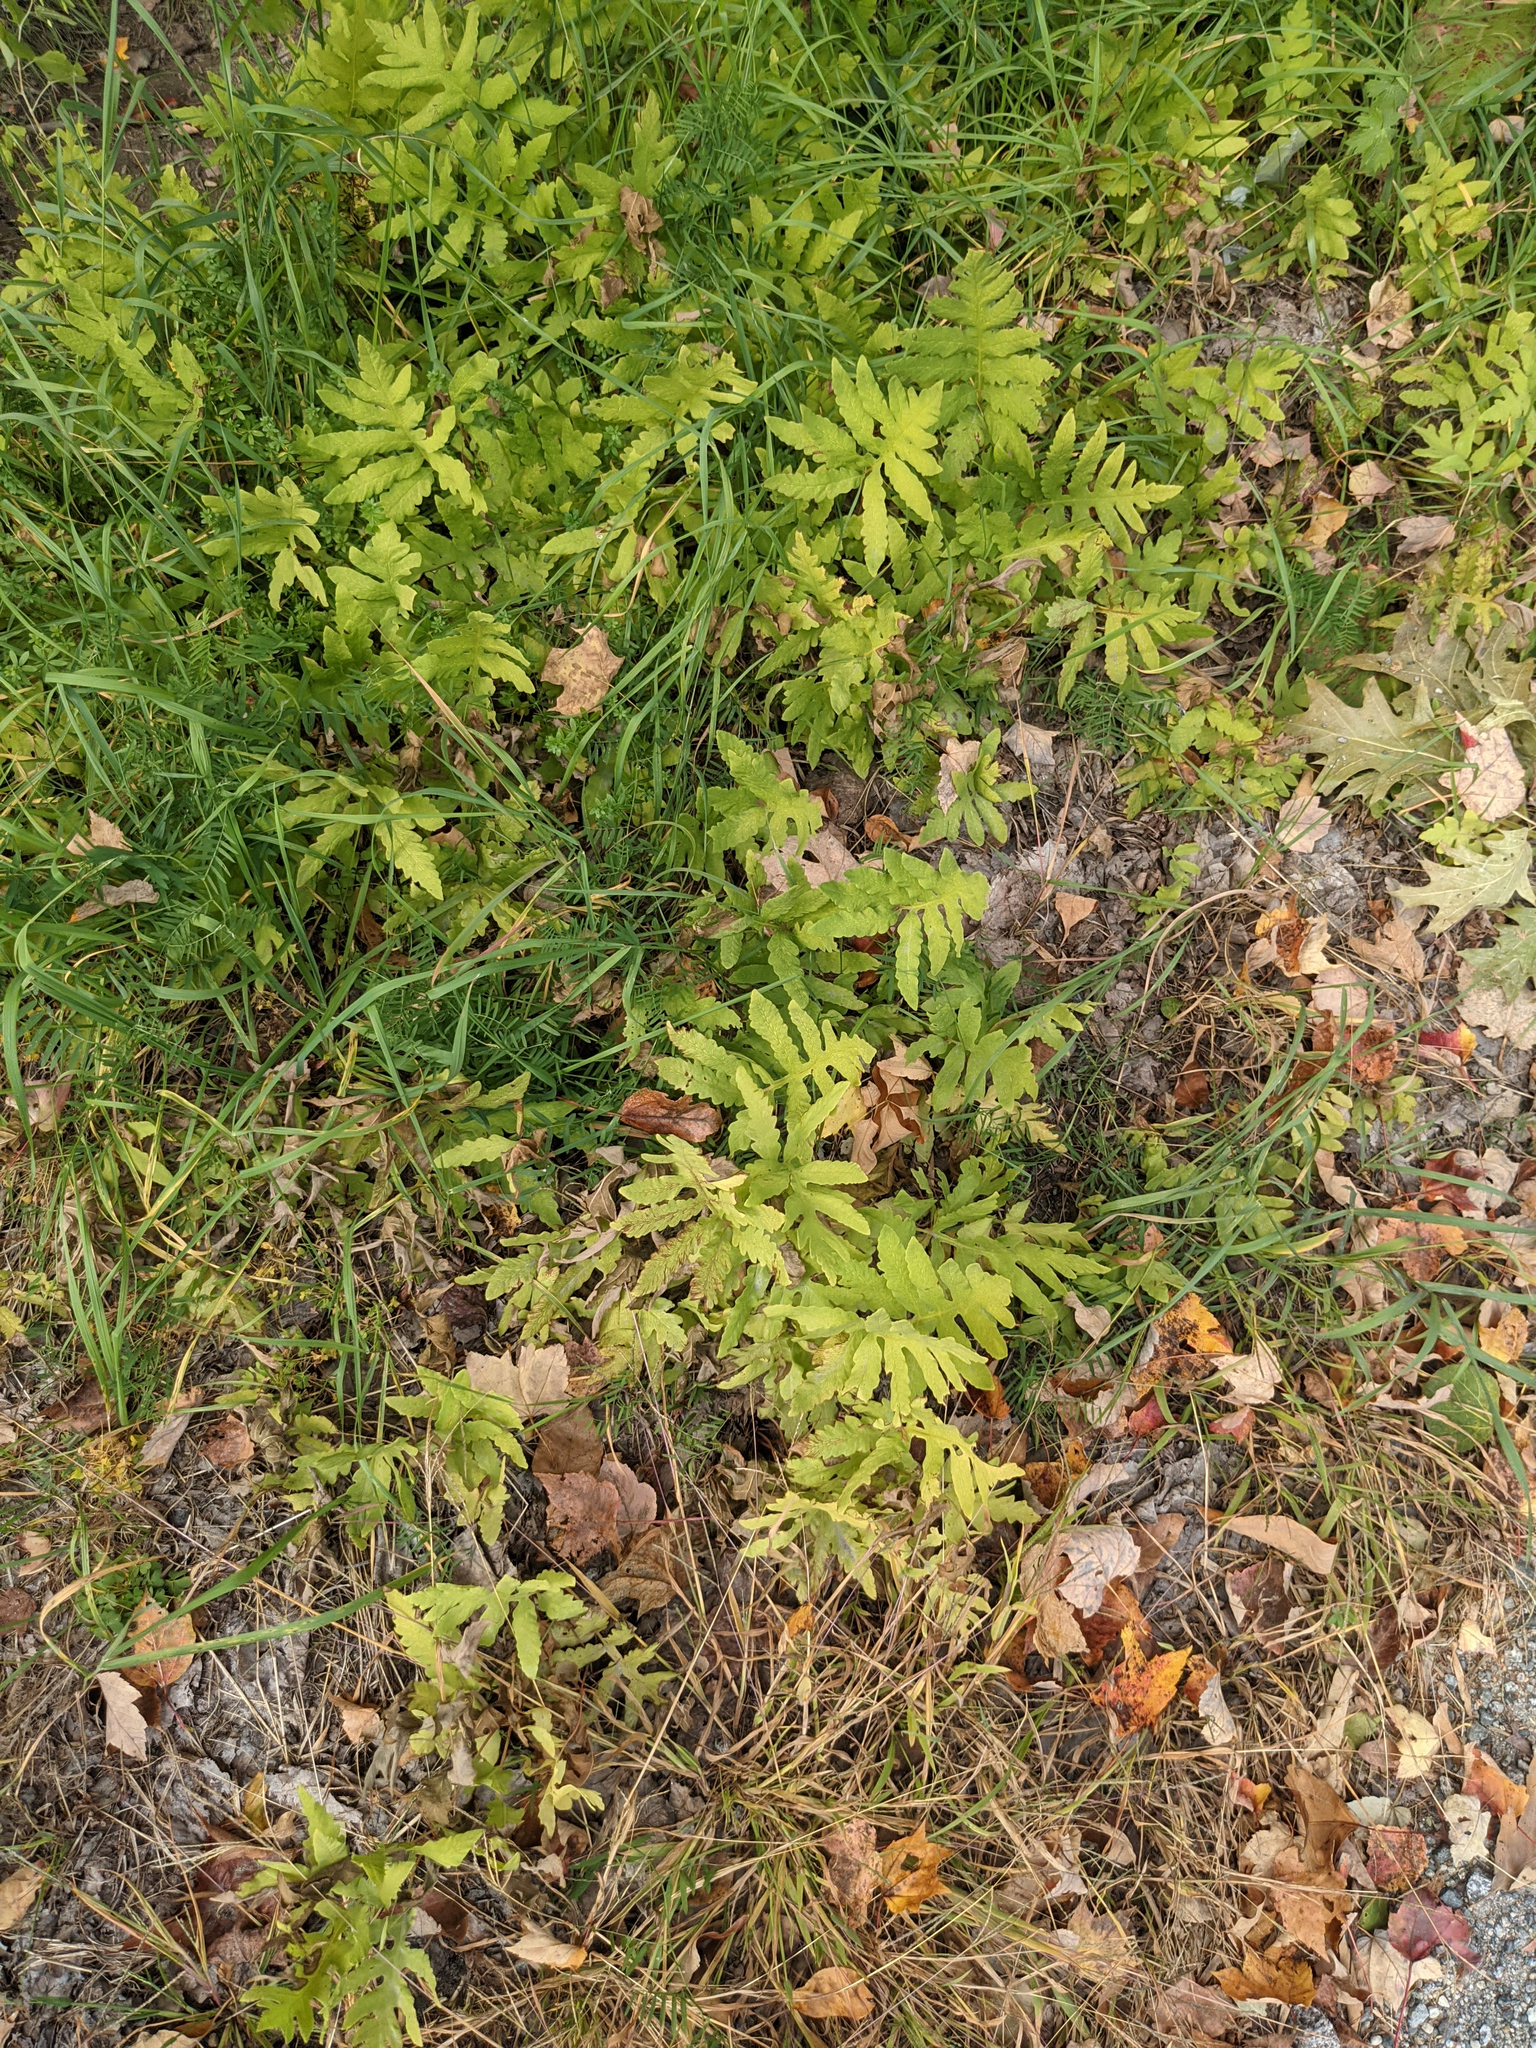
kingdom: Plantae
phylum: Tracheophyta
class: Polypodiopsida
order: Polypodiales
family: Onocleaceae
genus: Onoclea
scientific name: Onoclea sensibilis
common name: Sensitive fern
